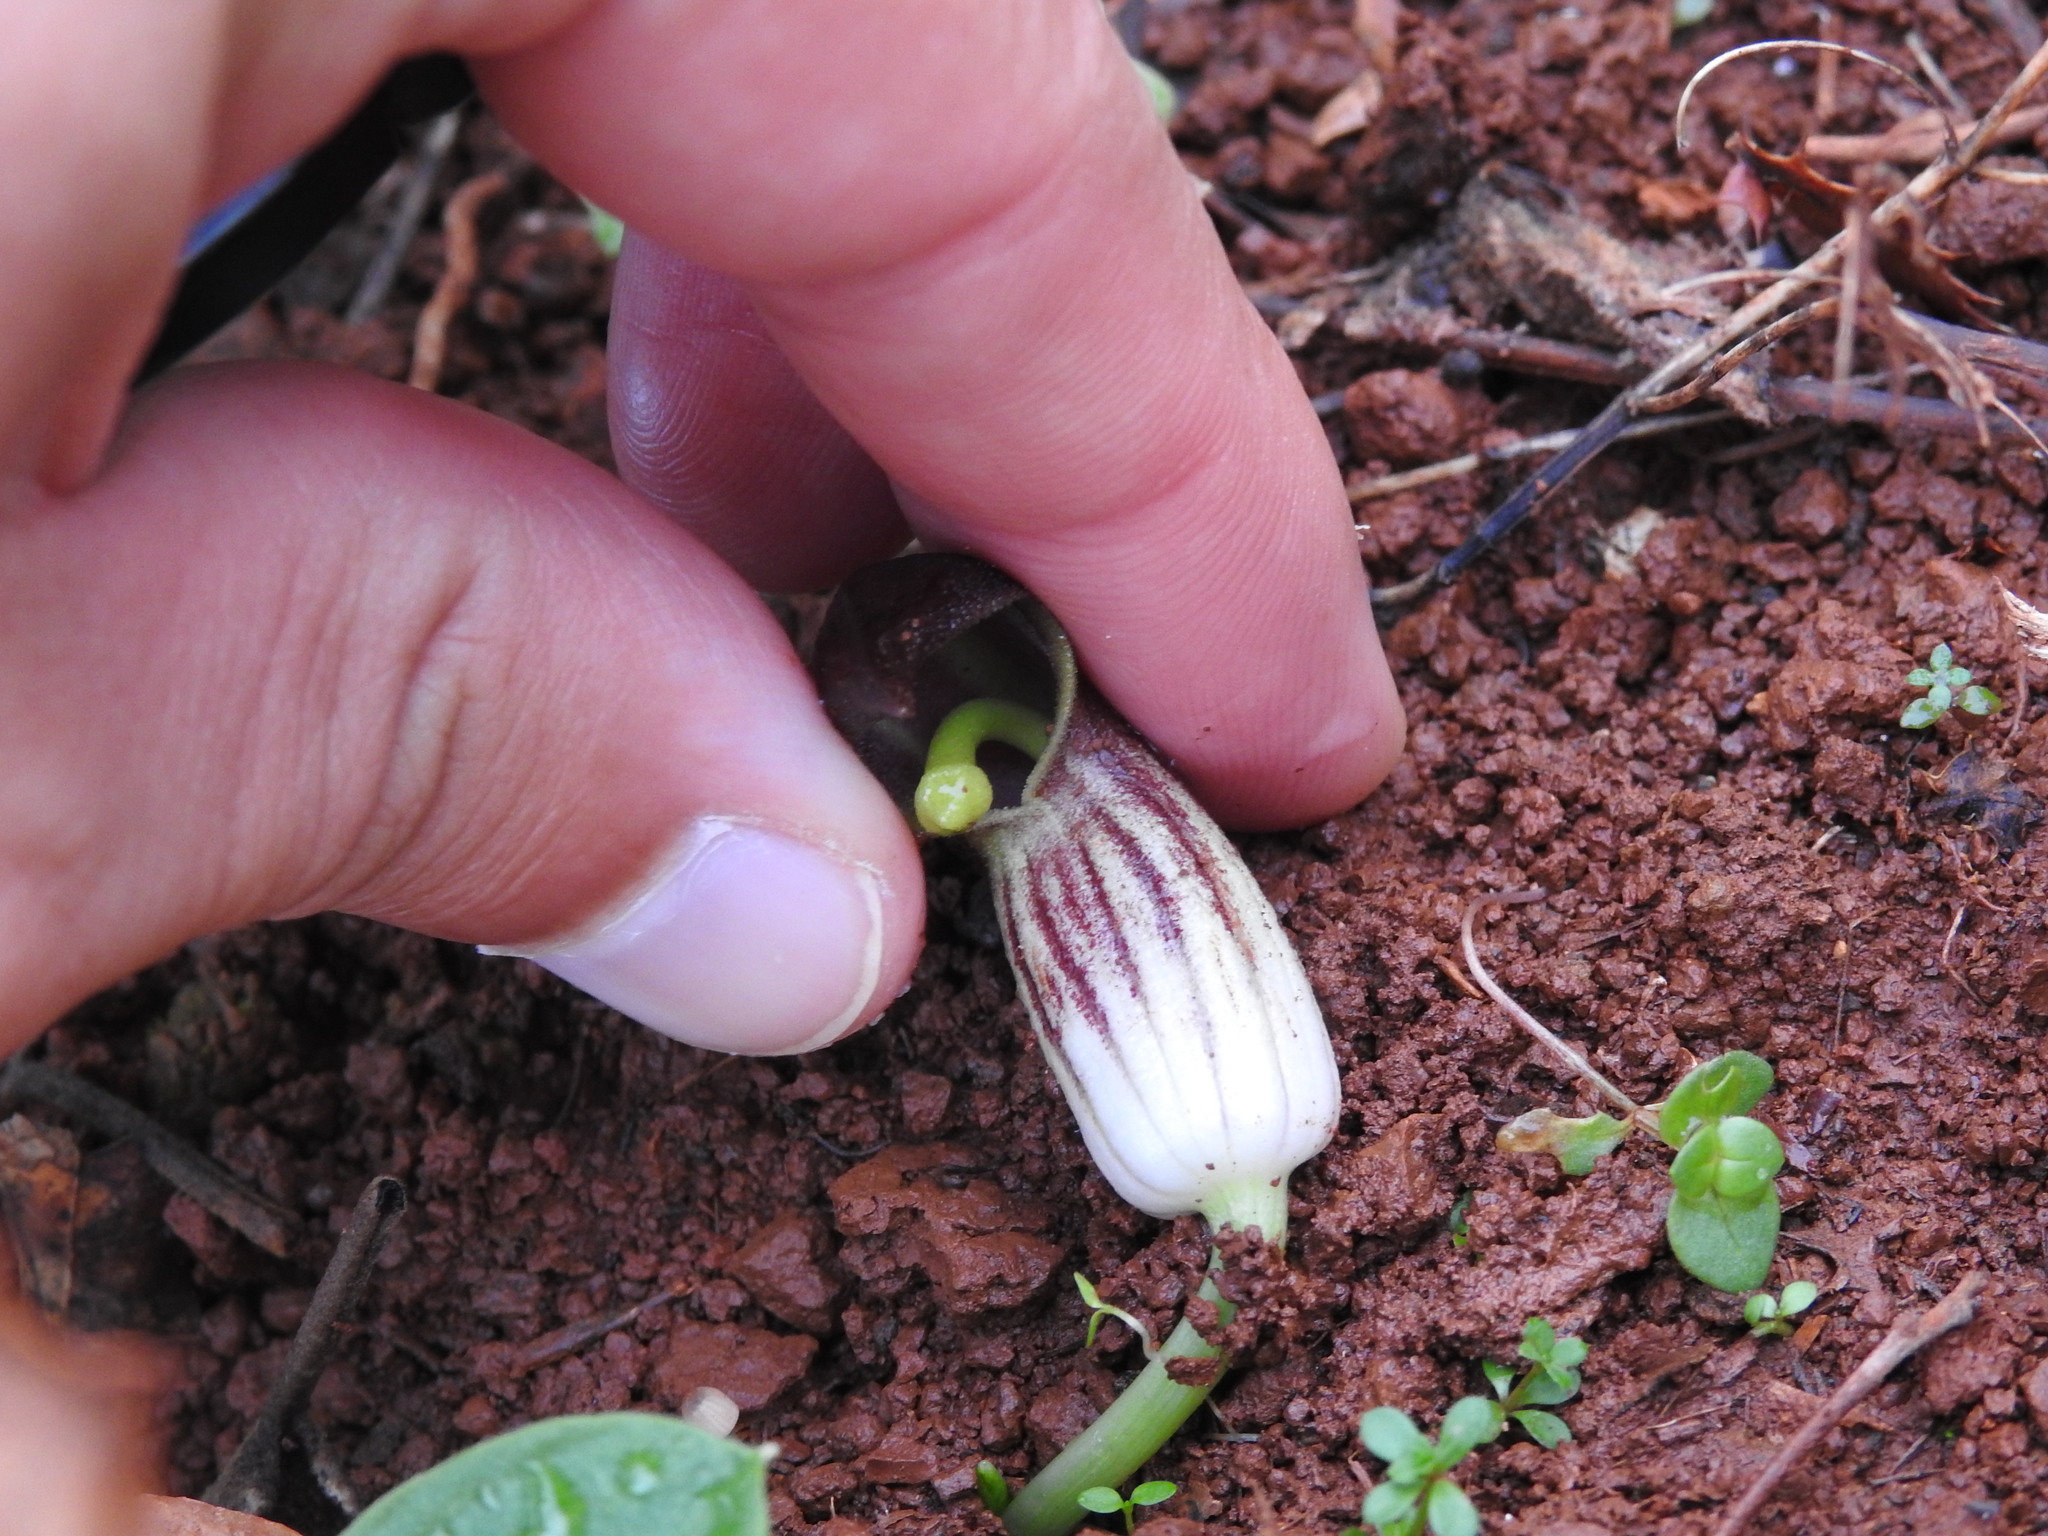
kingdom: Plantae
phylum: Tracheophyta
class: Liliopsida
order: Alismatales
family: Araceae
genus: Arisarum
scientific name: Arisarum simorrhinum
